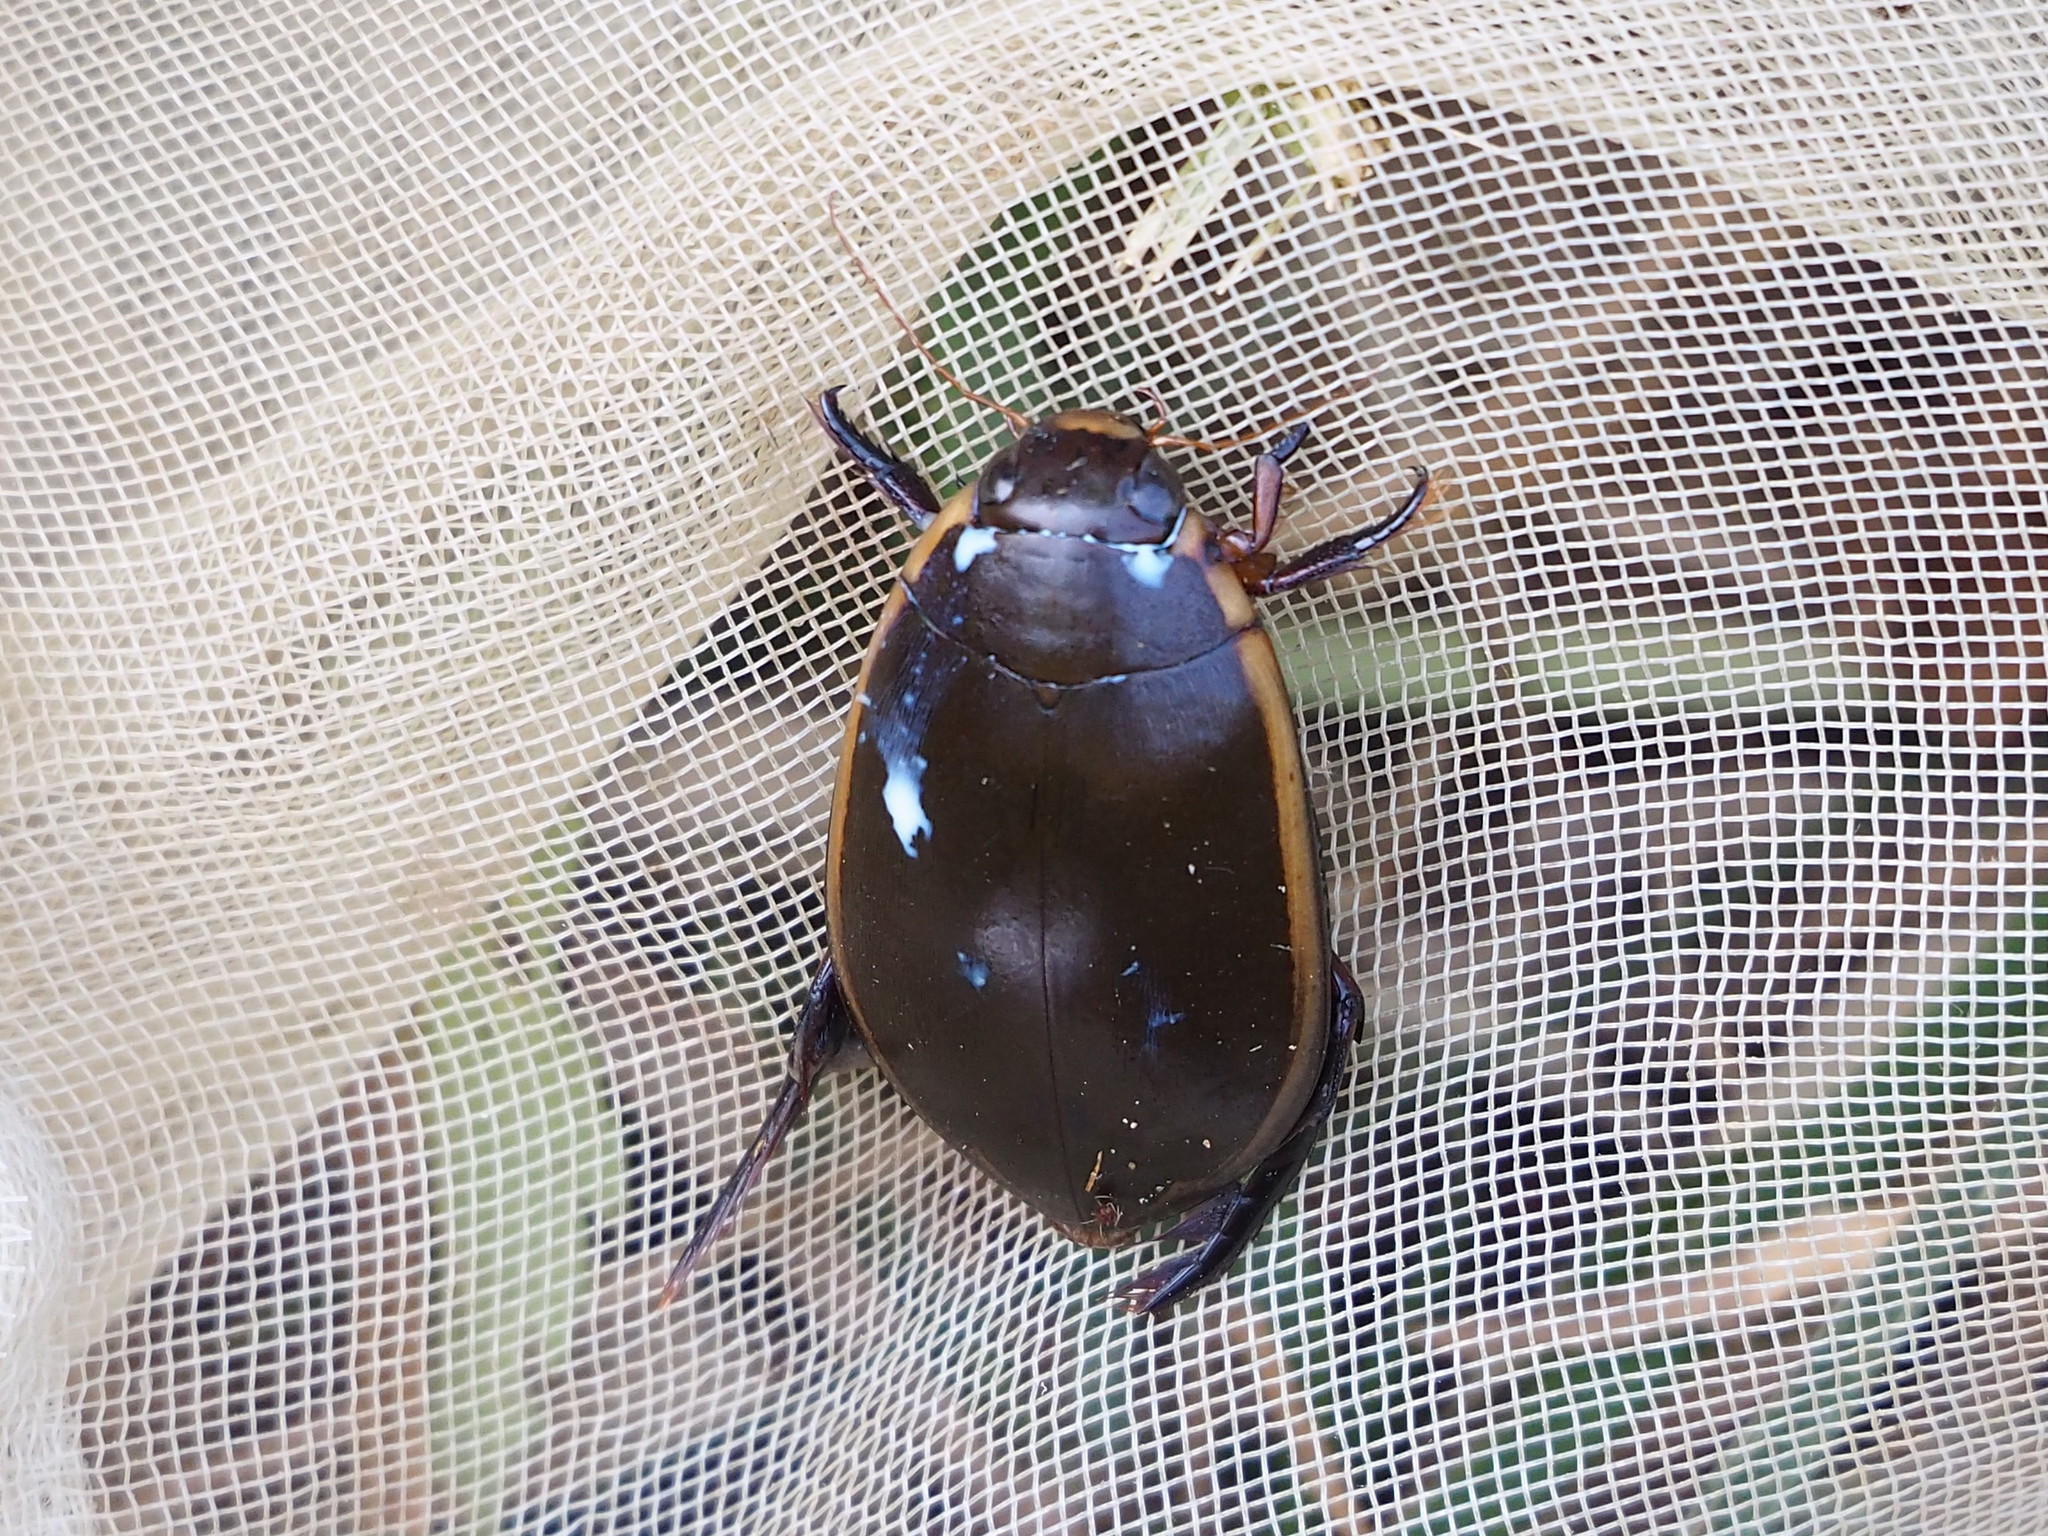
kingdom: Animalia
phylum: Arthropoda
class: Insecta
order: Coleoptera
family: Dytiscidae
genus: Cybister
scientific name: Cybister tripunctatus
